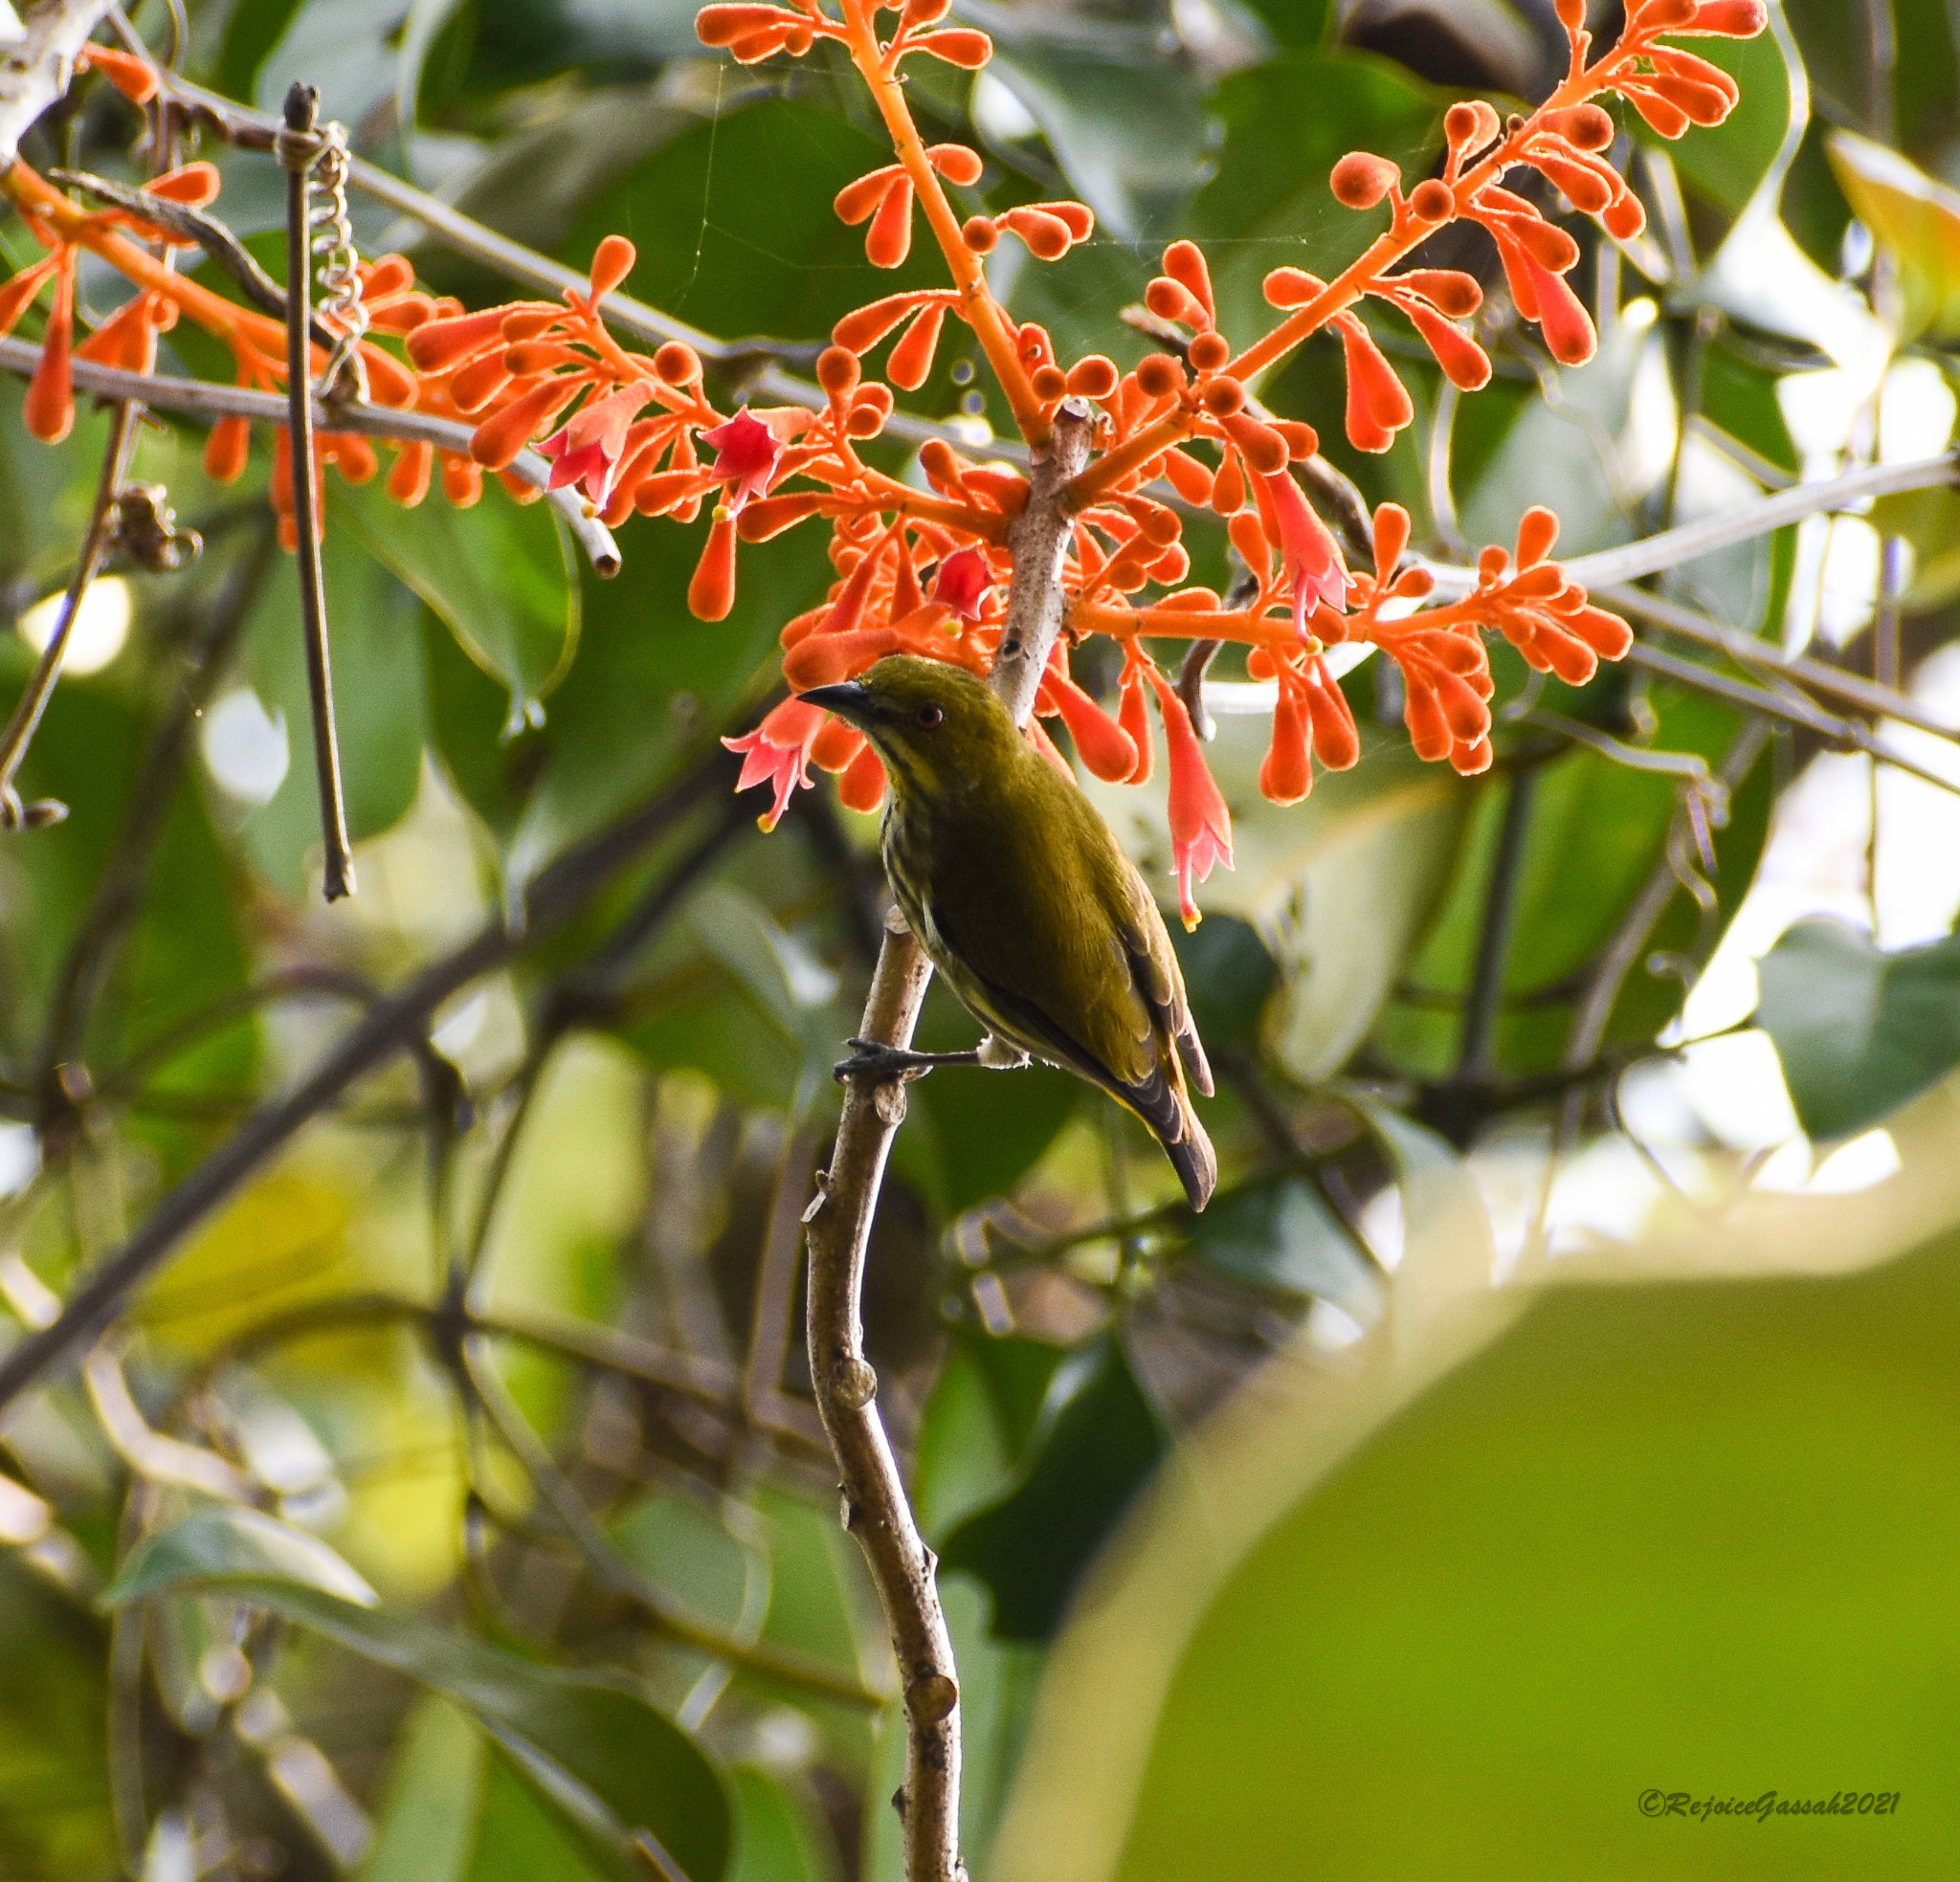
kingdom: Animalia
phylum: Chordata
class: Aves
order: Passeriformes
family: Dicaeidae
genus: Dicaeum
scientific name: Dicaeum chrysorrheum
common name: Yellow-vented flowerpecker
